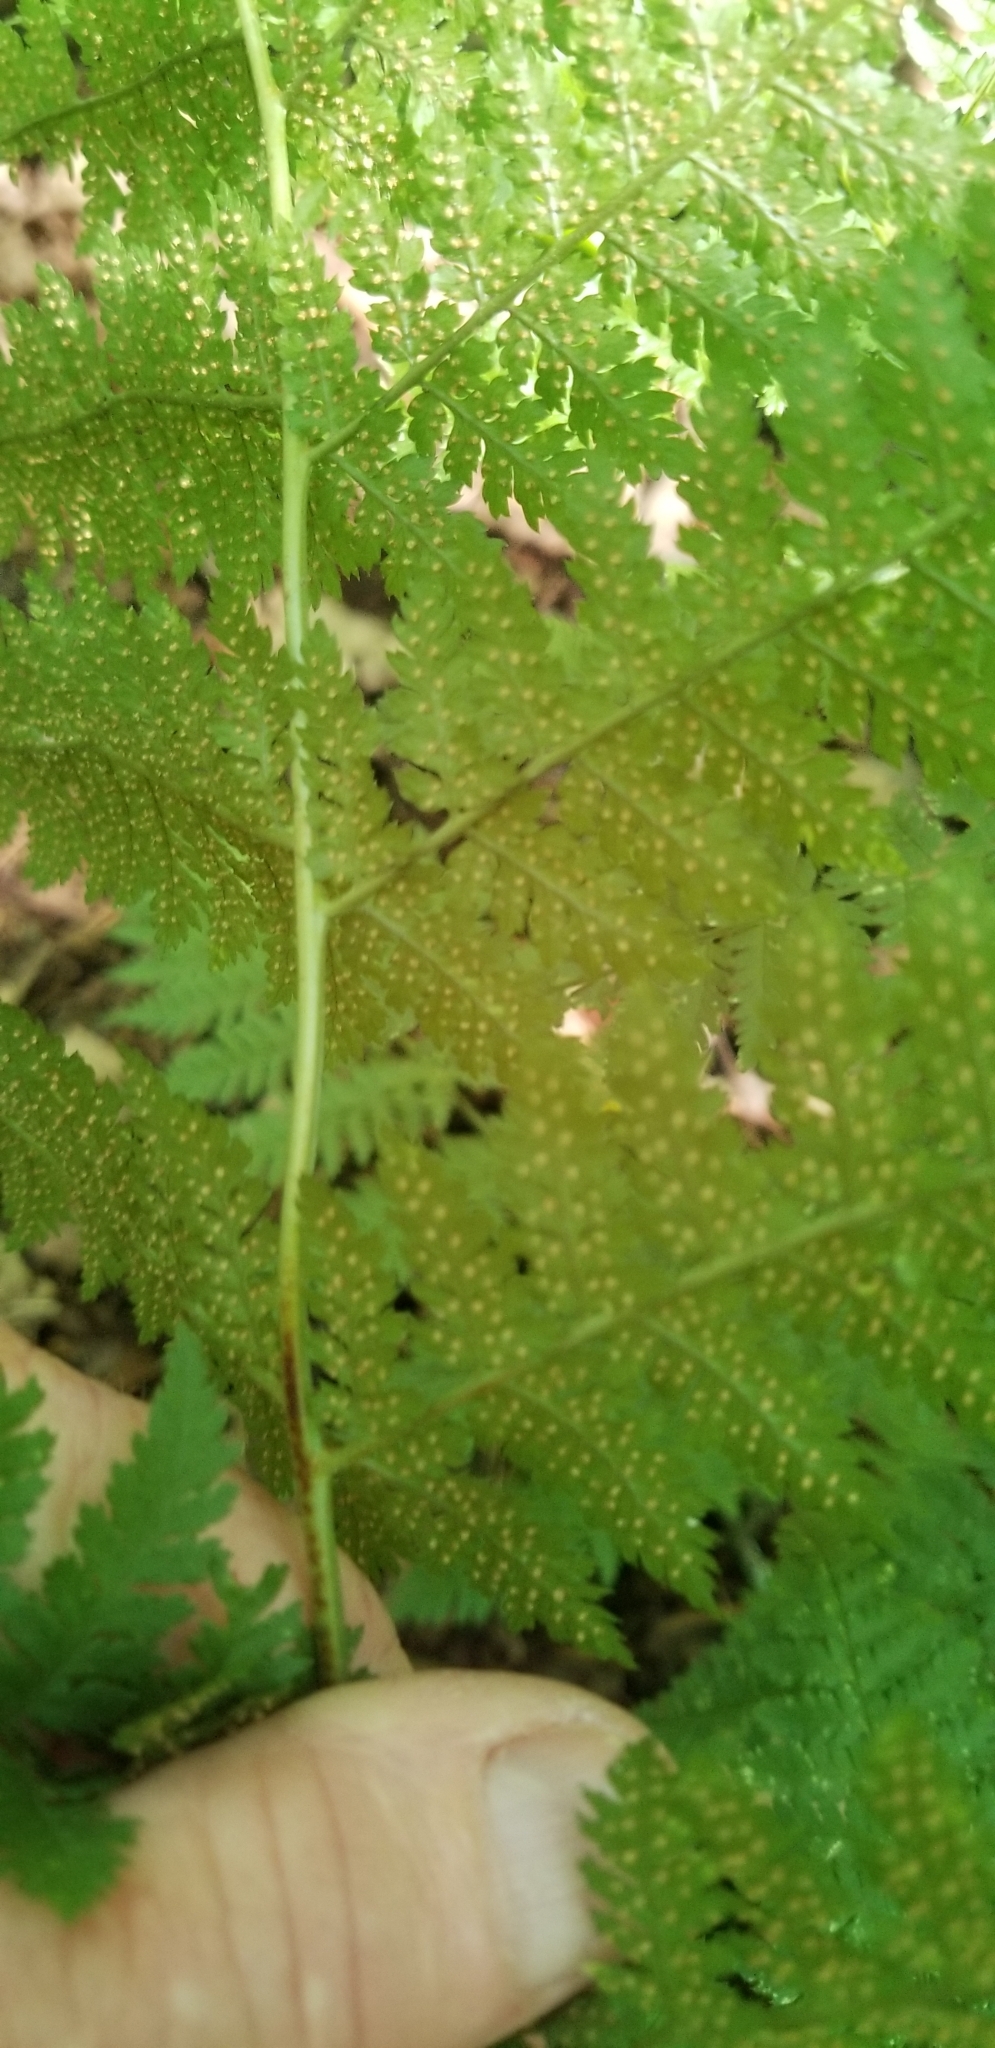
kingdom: Plantae
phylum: Tracheophyta
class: Polypodiopsida
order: Polypodiales
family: Dryopteridaceae
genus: Dryopteris
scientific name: Dryopteris intermedia
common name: Evergreen wood fern
